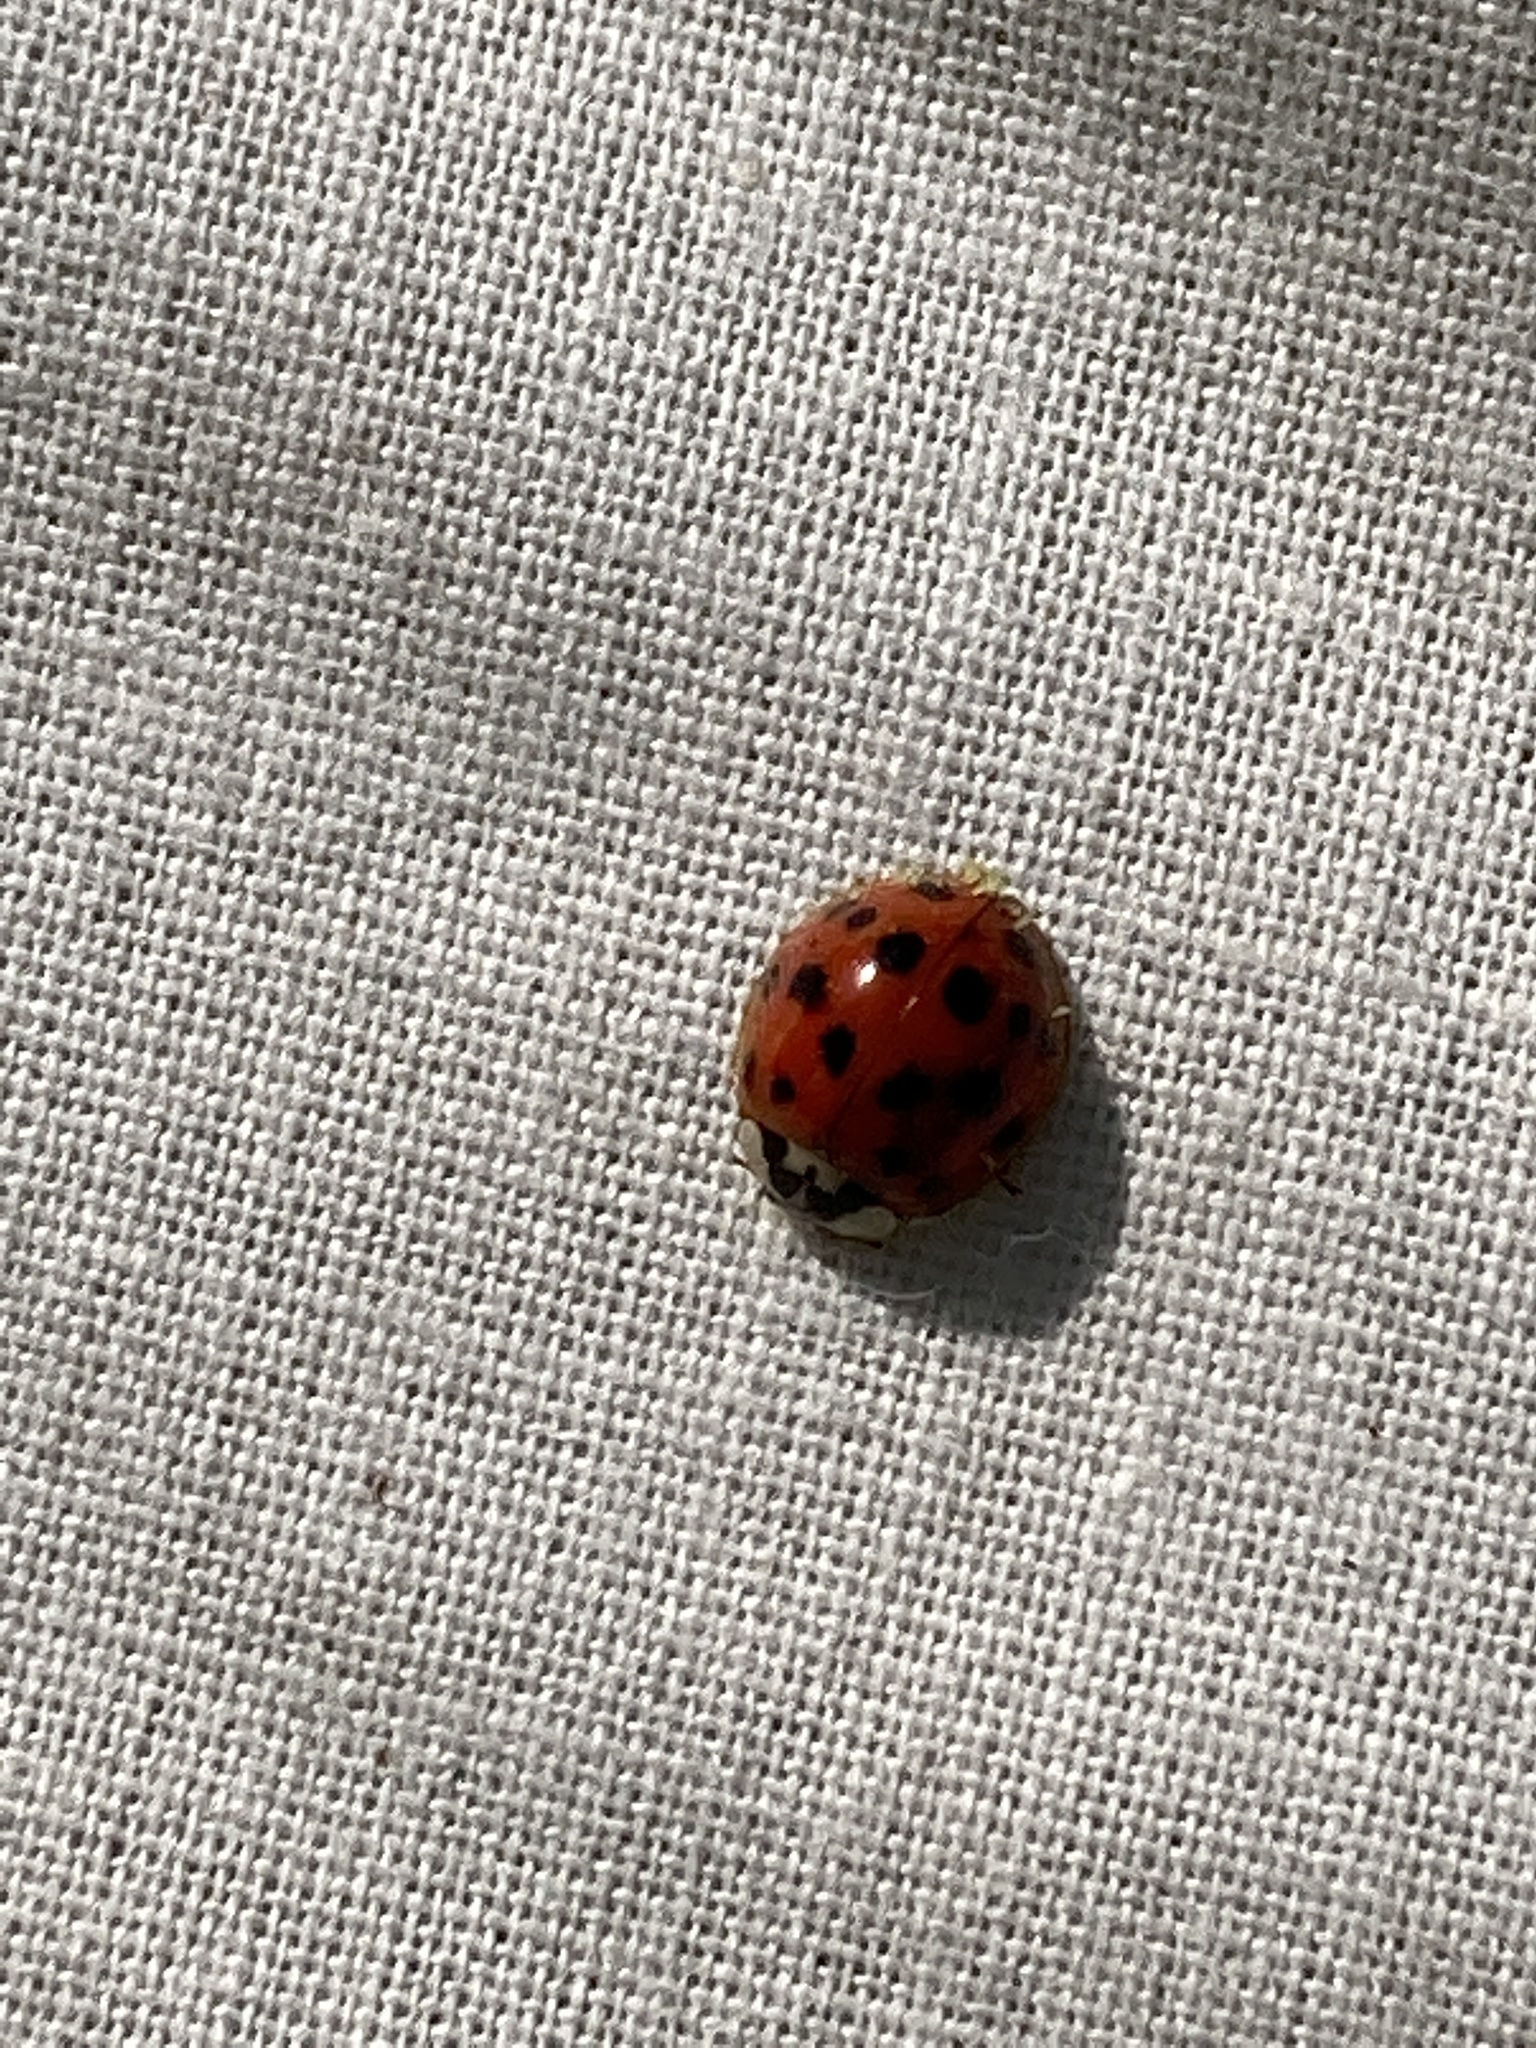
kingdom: Animalia
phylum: Arthropoda
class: Insecta
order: Coleoptera
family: Coccinellidae
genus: Harmonia
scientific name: Harmonia axyridis
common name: Harlequin ladybird
